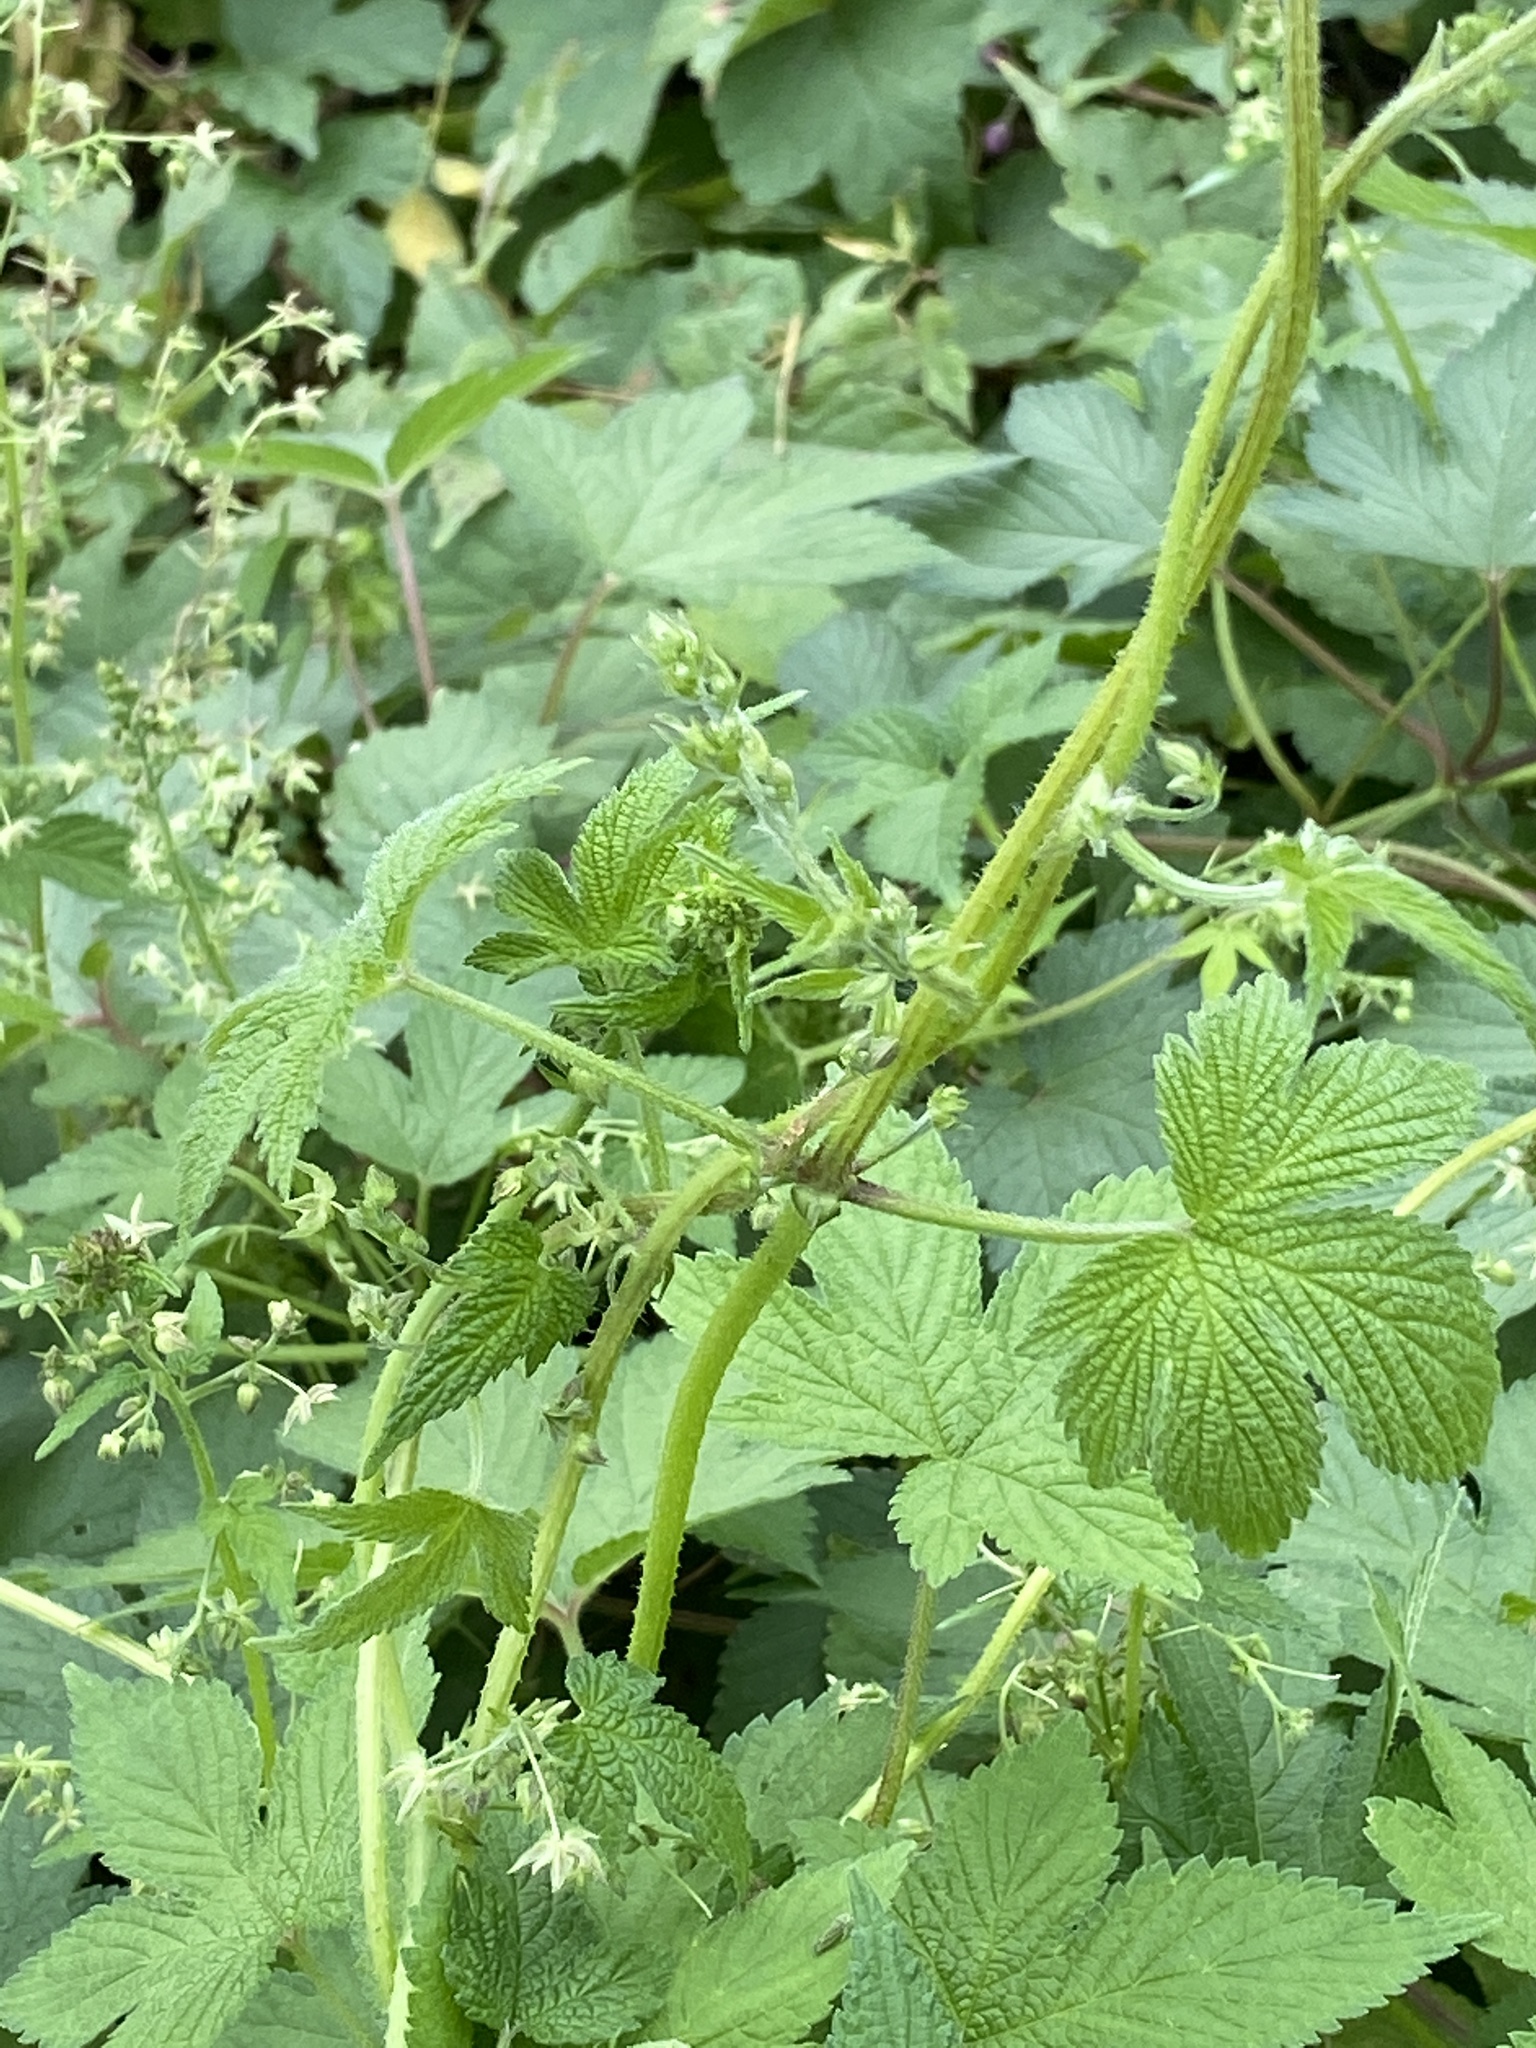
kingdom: Plantae
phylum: Tracheophyta
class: Magnoliopsida
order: Rosales
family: Cannabaceae
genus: Humulus
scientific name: Humulus scandens
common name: Japanese hop
